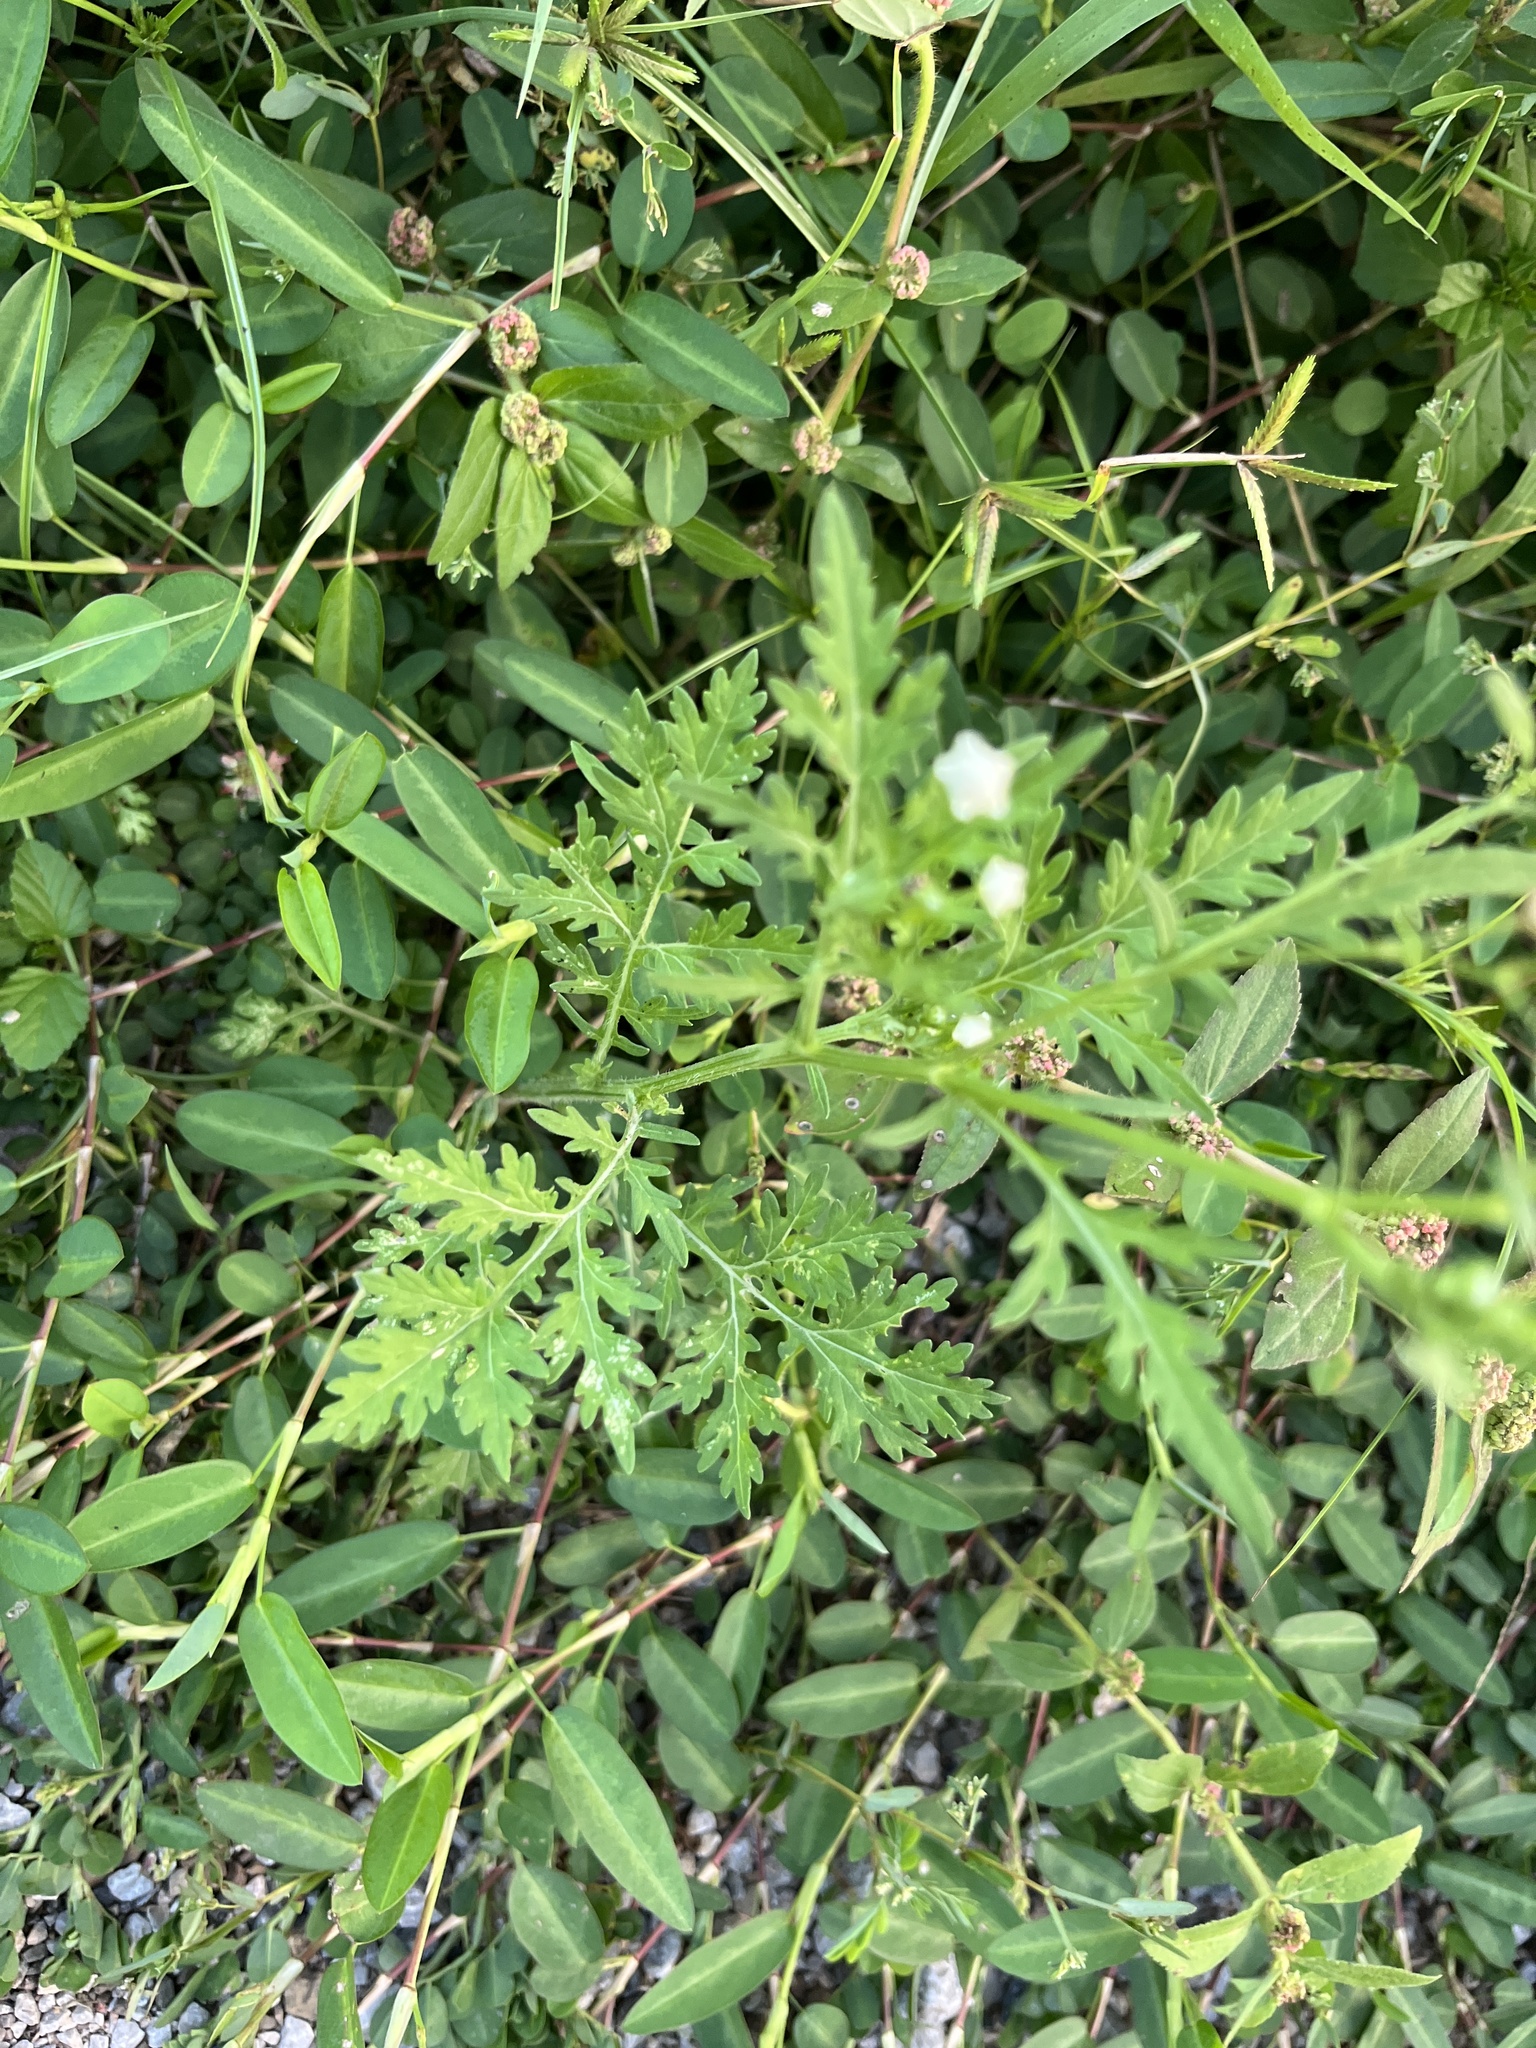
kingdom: Plantae
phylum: Tracheophyta
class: Magnoliopsida
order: Asterales
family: Asteraceae
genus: Parthenium
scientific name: Parthenium hysterophorus
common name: Santa maria feverfew
